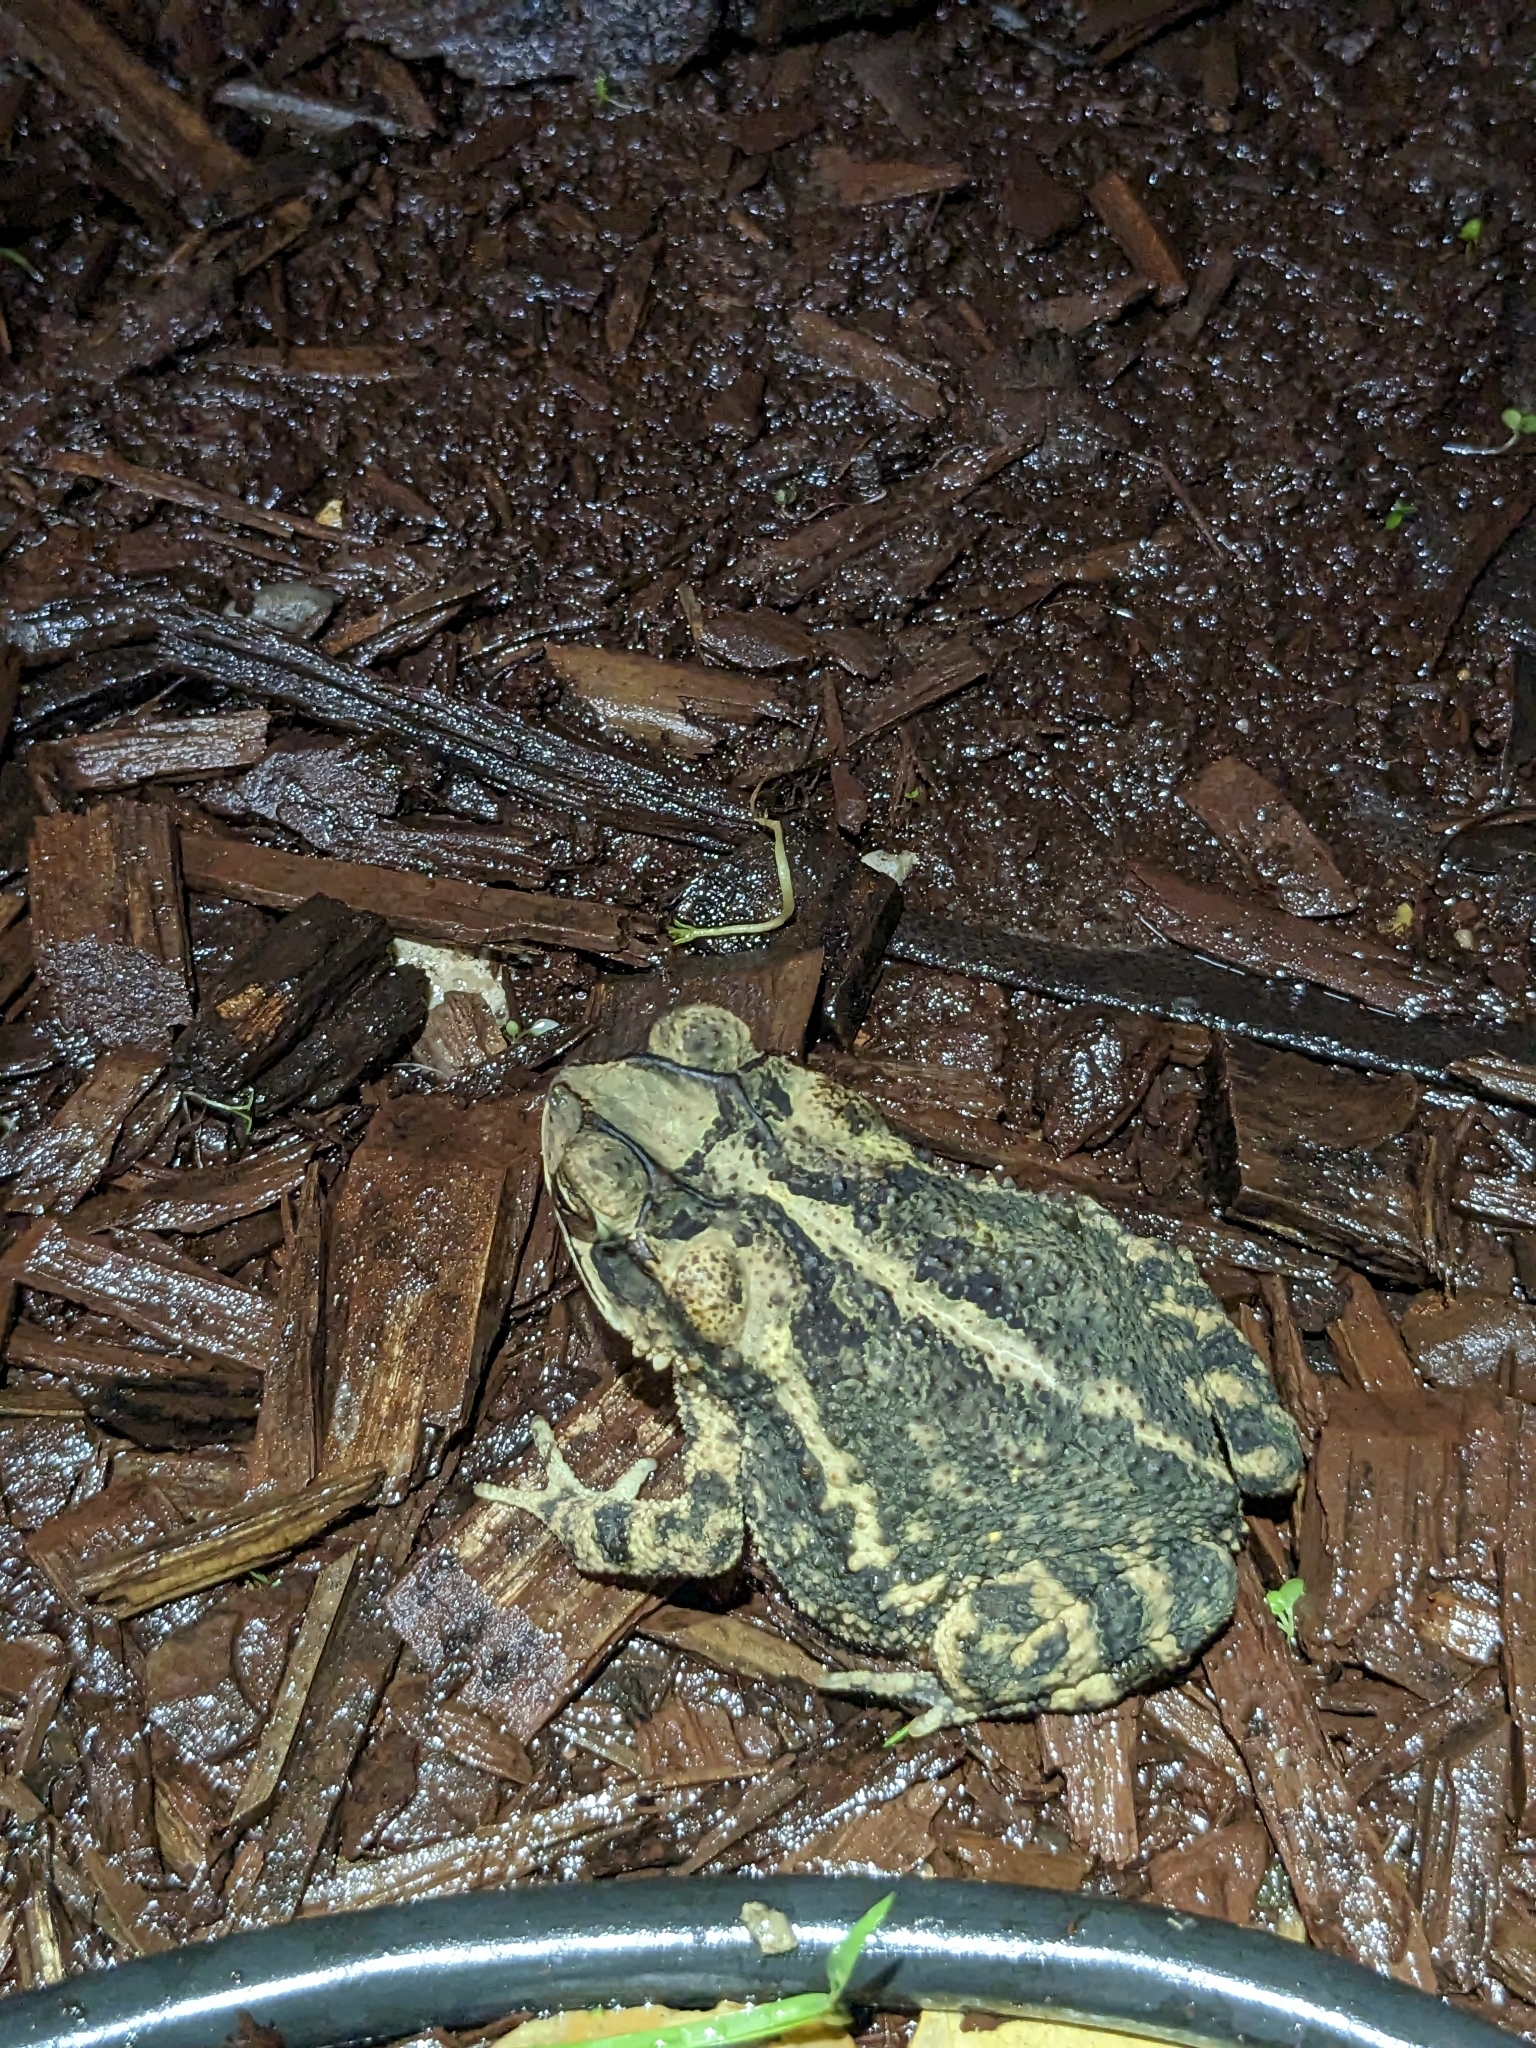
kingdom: Animalia
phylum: Chordata
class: Amphibia
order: Anura
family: Bufonidae
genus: Incilius
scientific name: Incilius nebulifer
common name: Gulf coast toad
